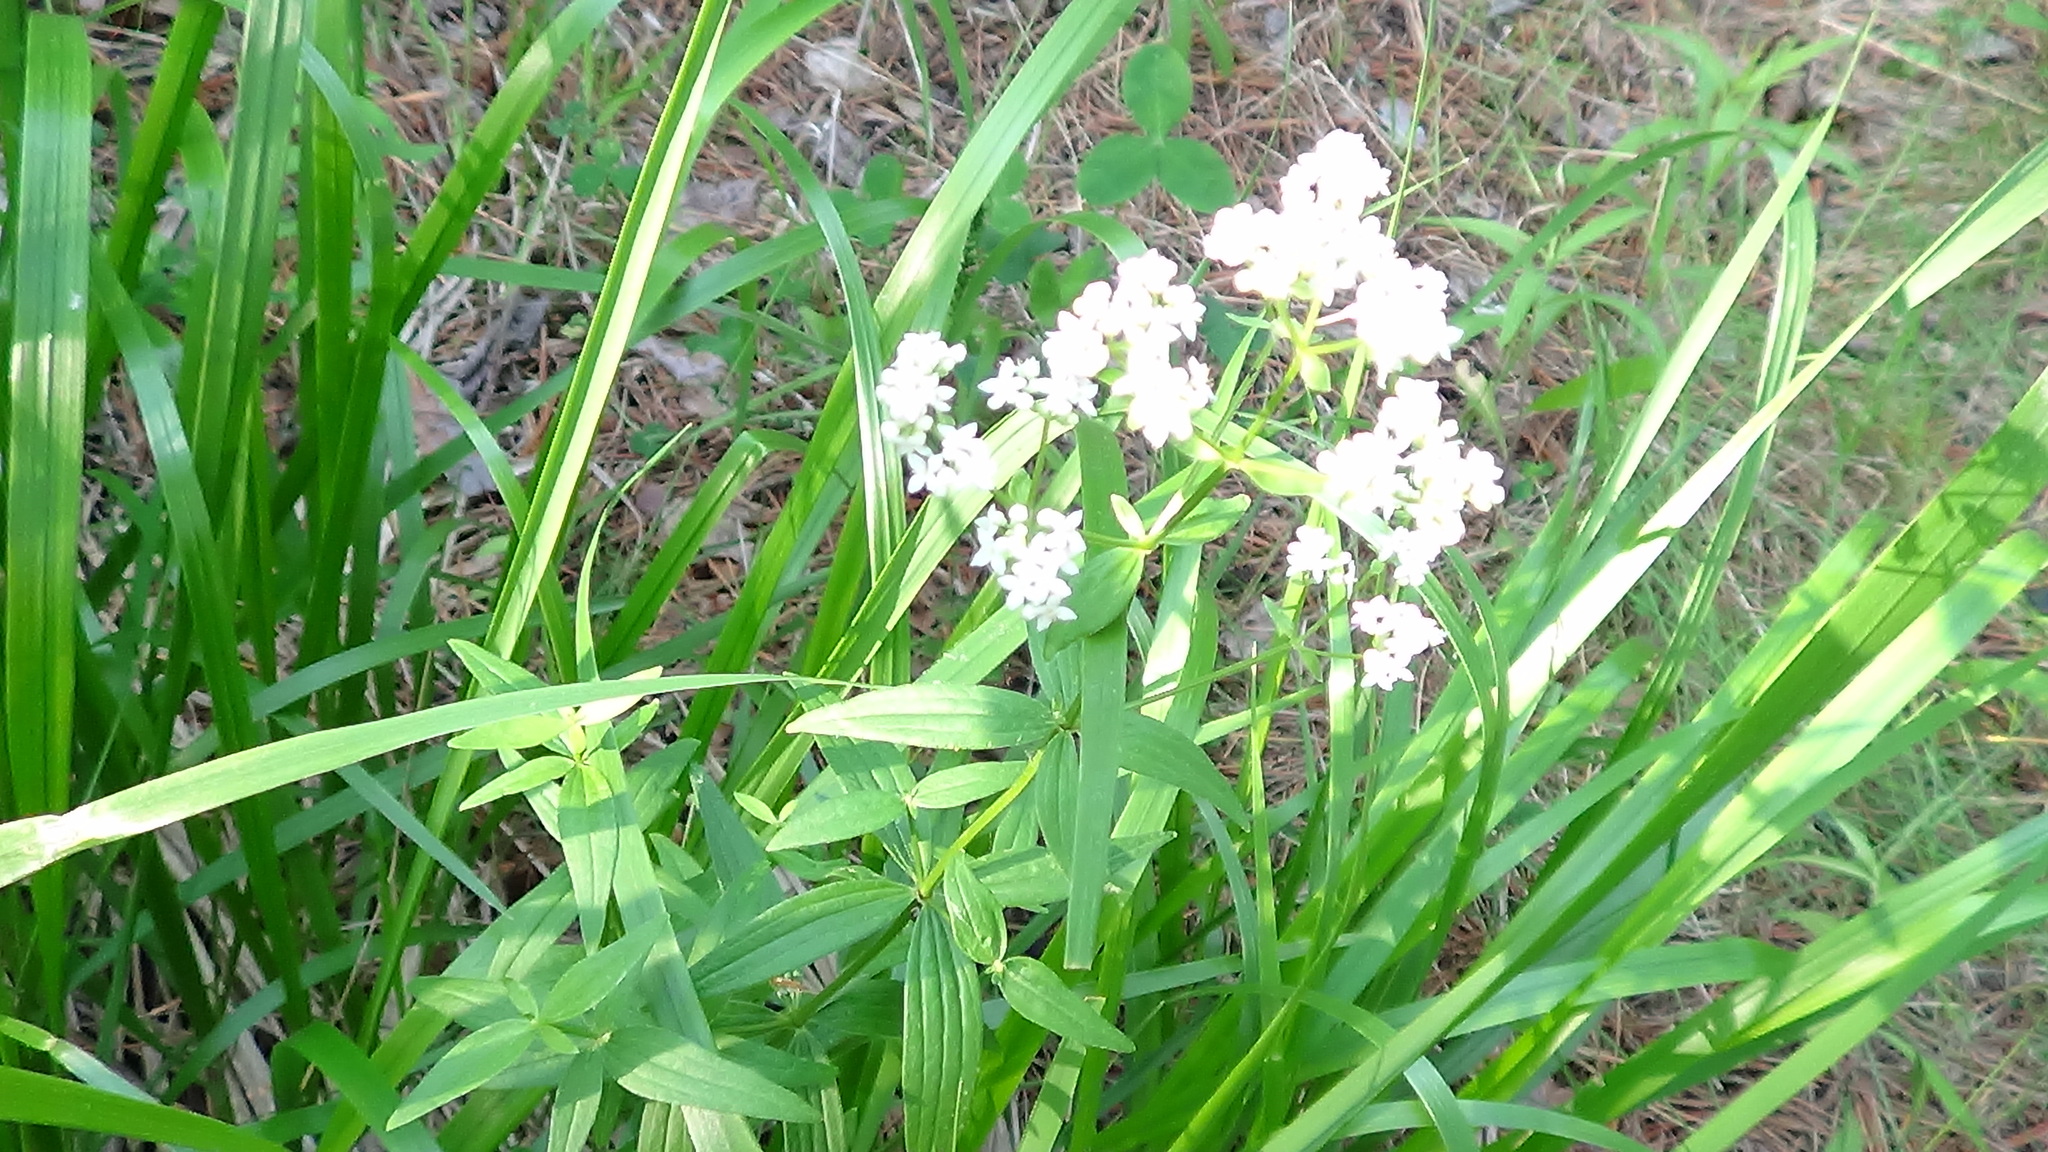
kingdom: Plantae
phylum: Tracheophyta
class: Magnoliopsida
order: Gentianales
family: Rubiaceae
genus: Galium
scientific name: Galium boreale
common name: Northern bedstraw
